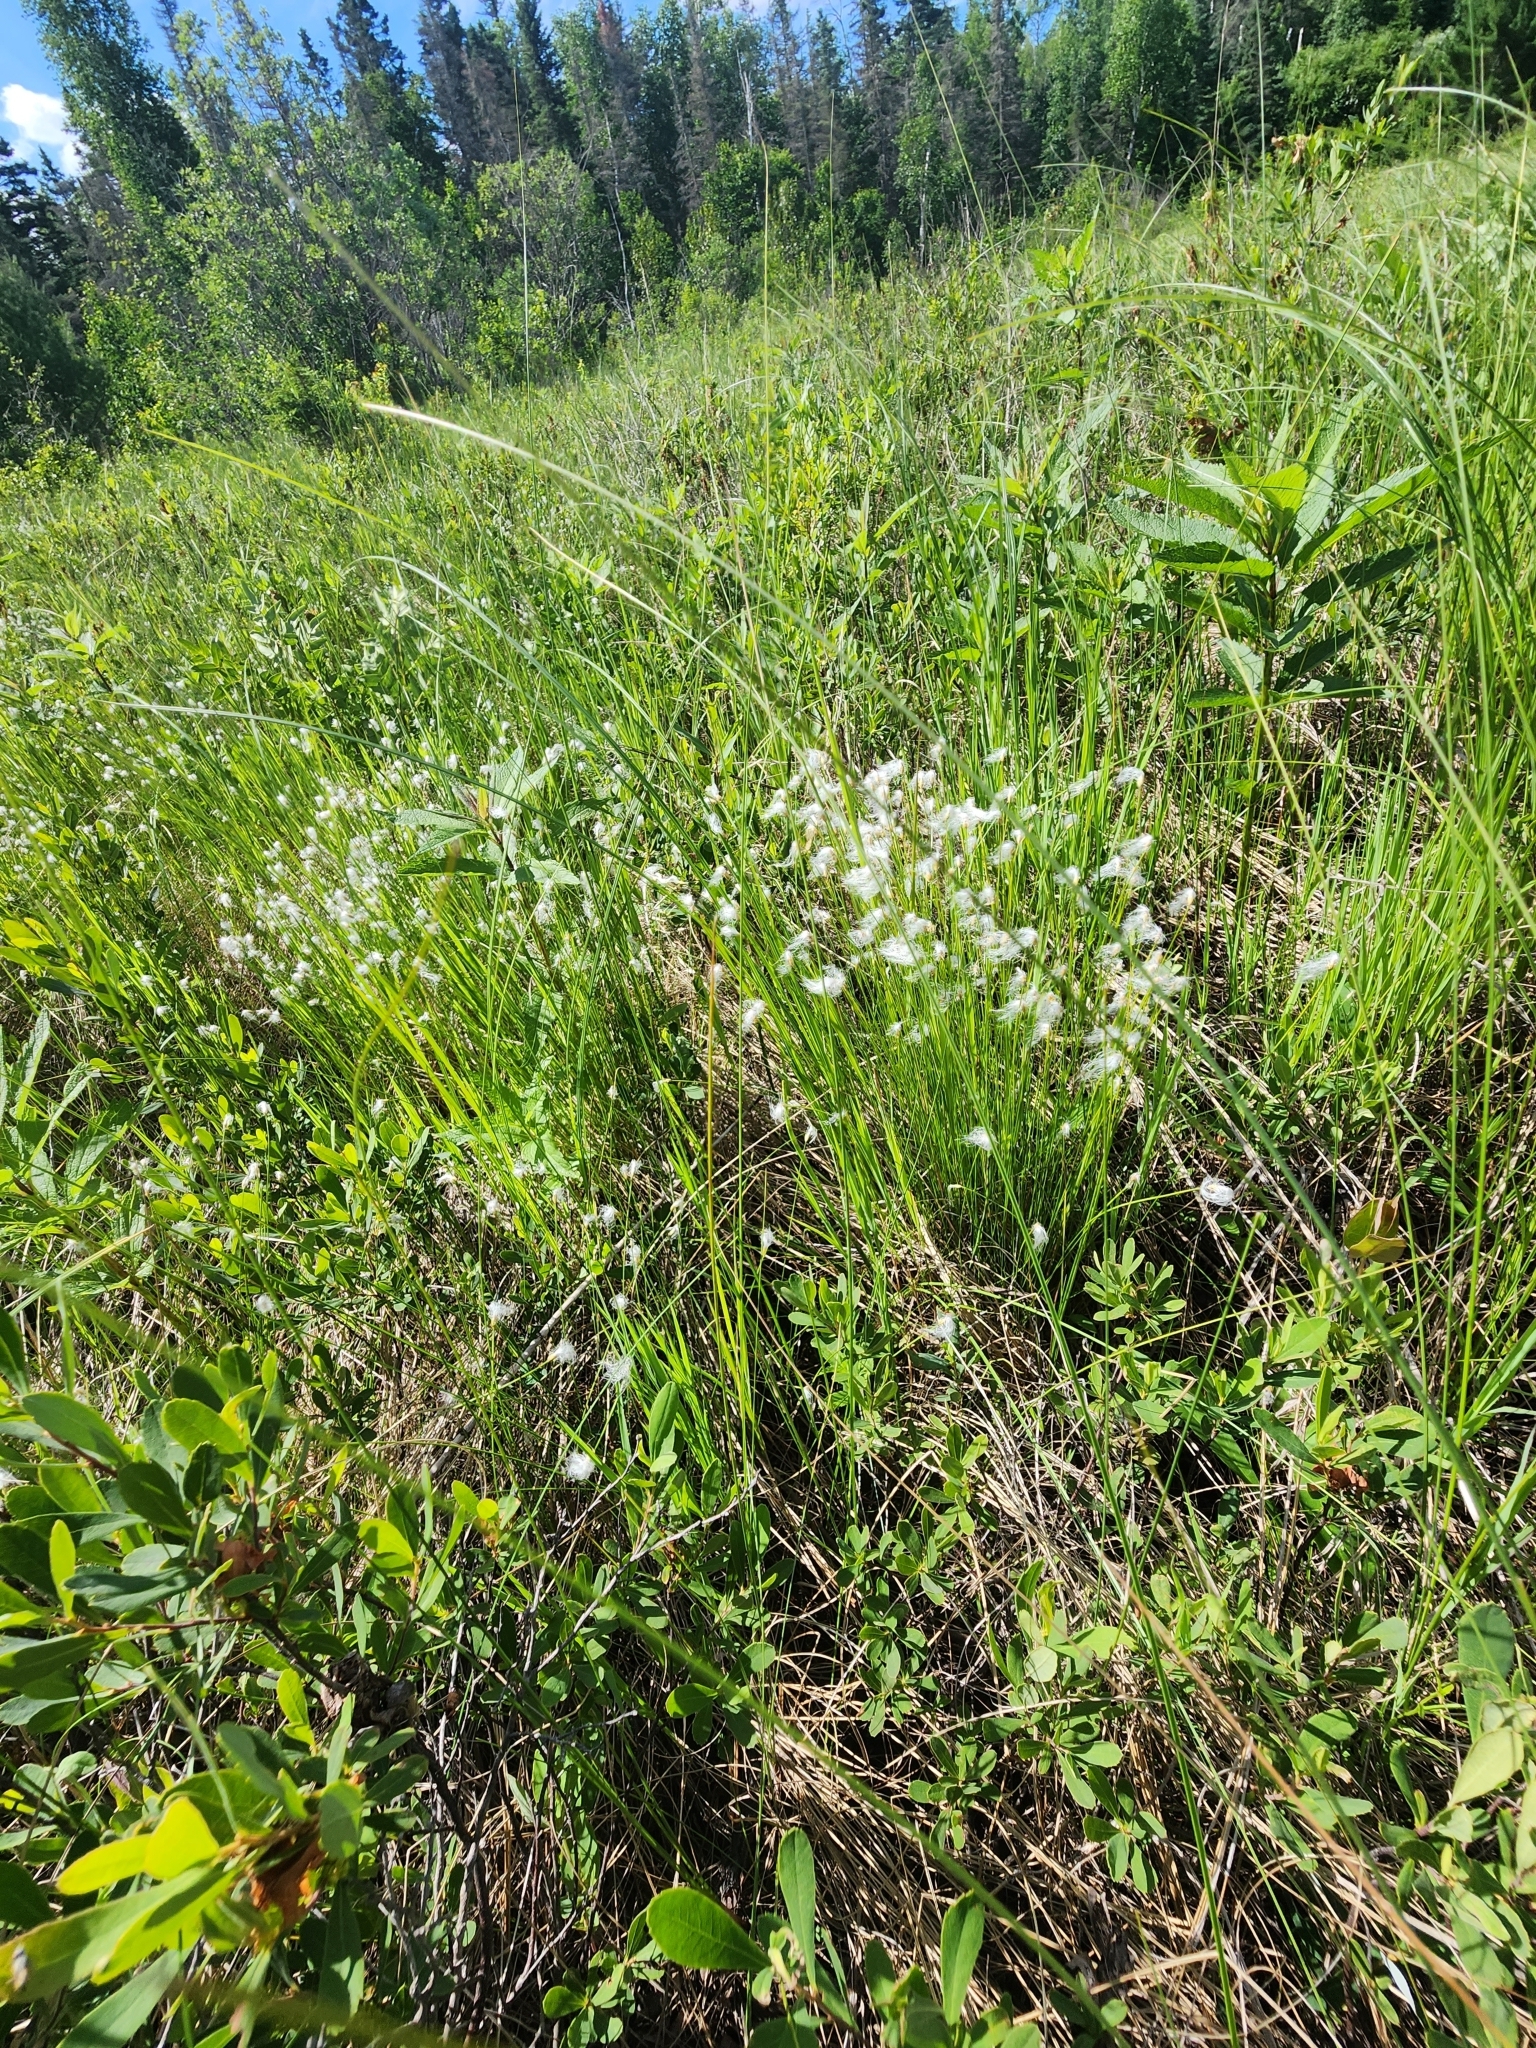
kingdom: Plantae
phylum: Tracheophyta
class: Liliopsida
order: Poales
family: Cyperaceae
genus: Trichophorum
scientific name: Trichophorum alpinum
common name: Alpine bulrush
